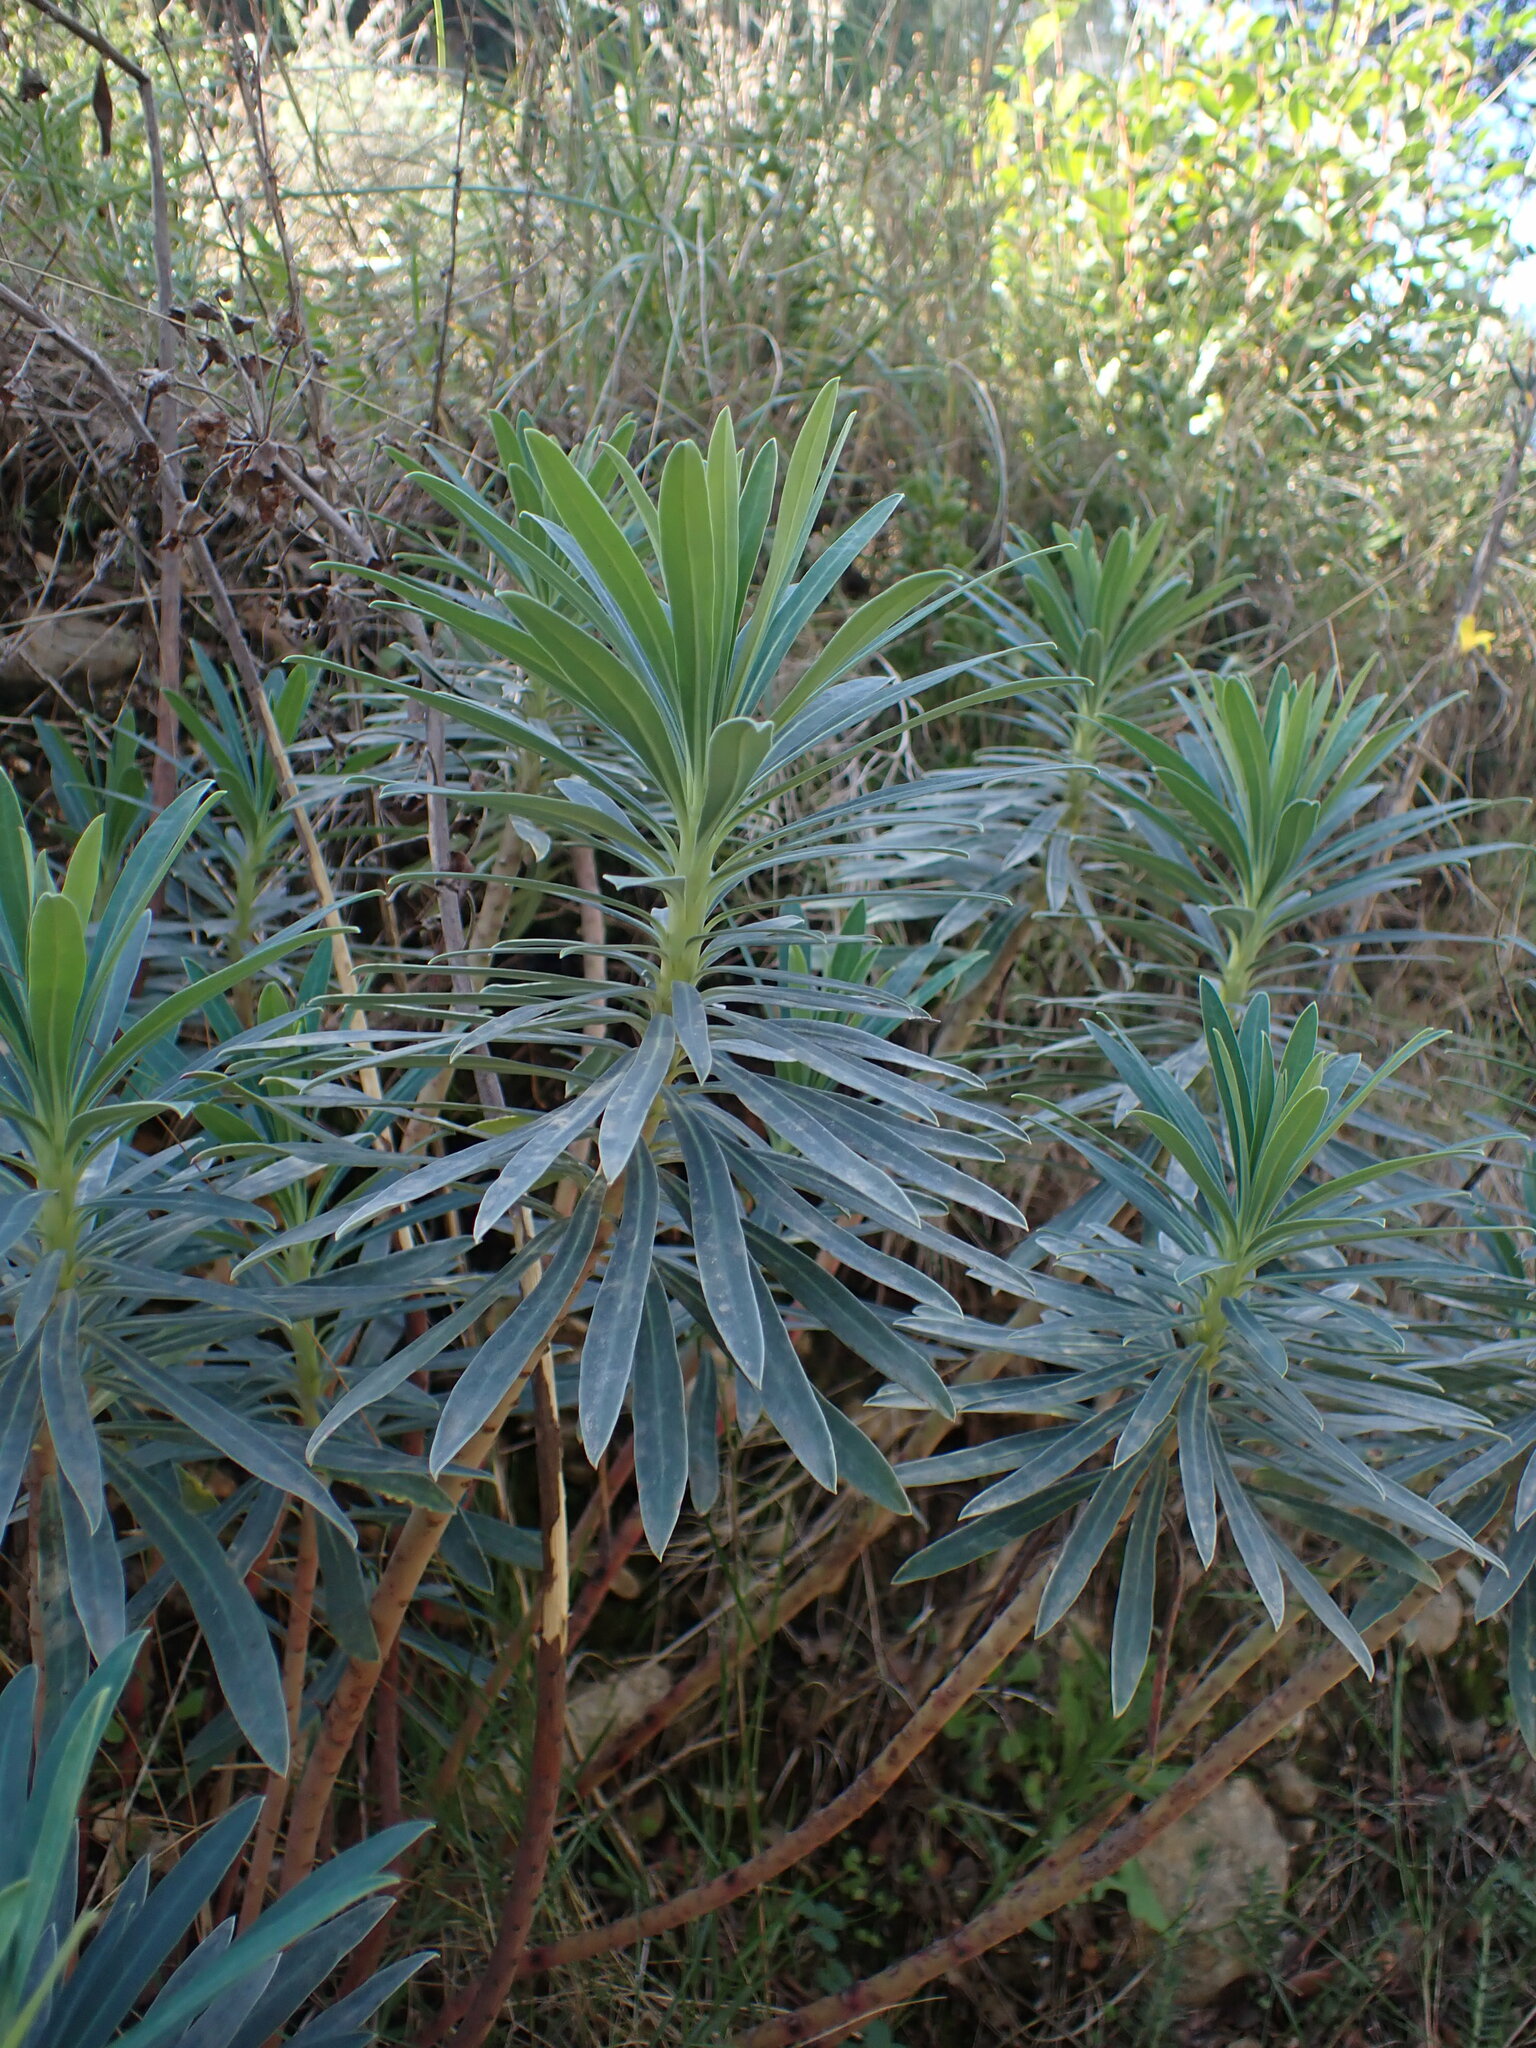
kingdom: Plantae
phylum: Tracheophyta
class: Magnoliopsida
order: Malpighiales
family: Euphorbiaceae
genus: Euphorbia
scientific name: Euphorbia characias
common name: Mediterranean spurge
